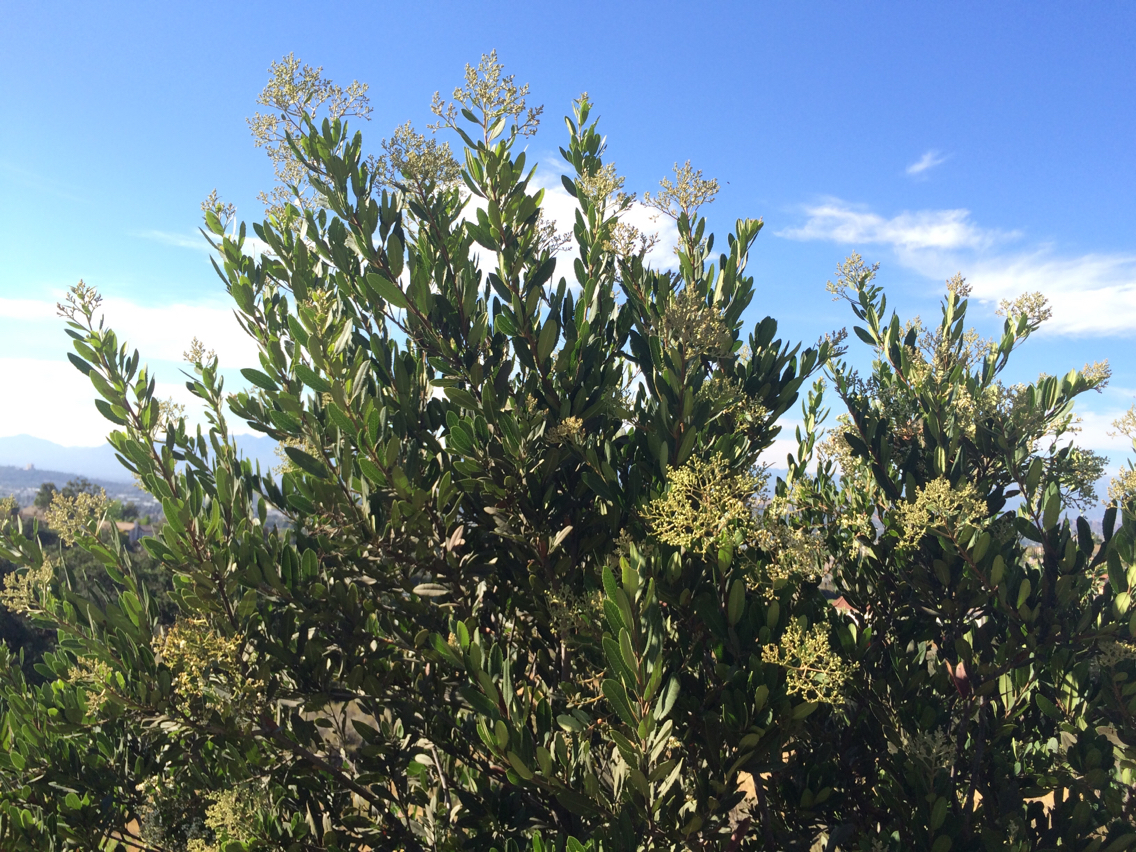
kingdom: Plantae
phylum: Tracheophyta
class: Magnoliopsida
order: Rosales
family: Rosaceae
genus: Heteromeles
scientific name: Heteromeles arbutifolia
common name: California-holly
